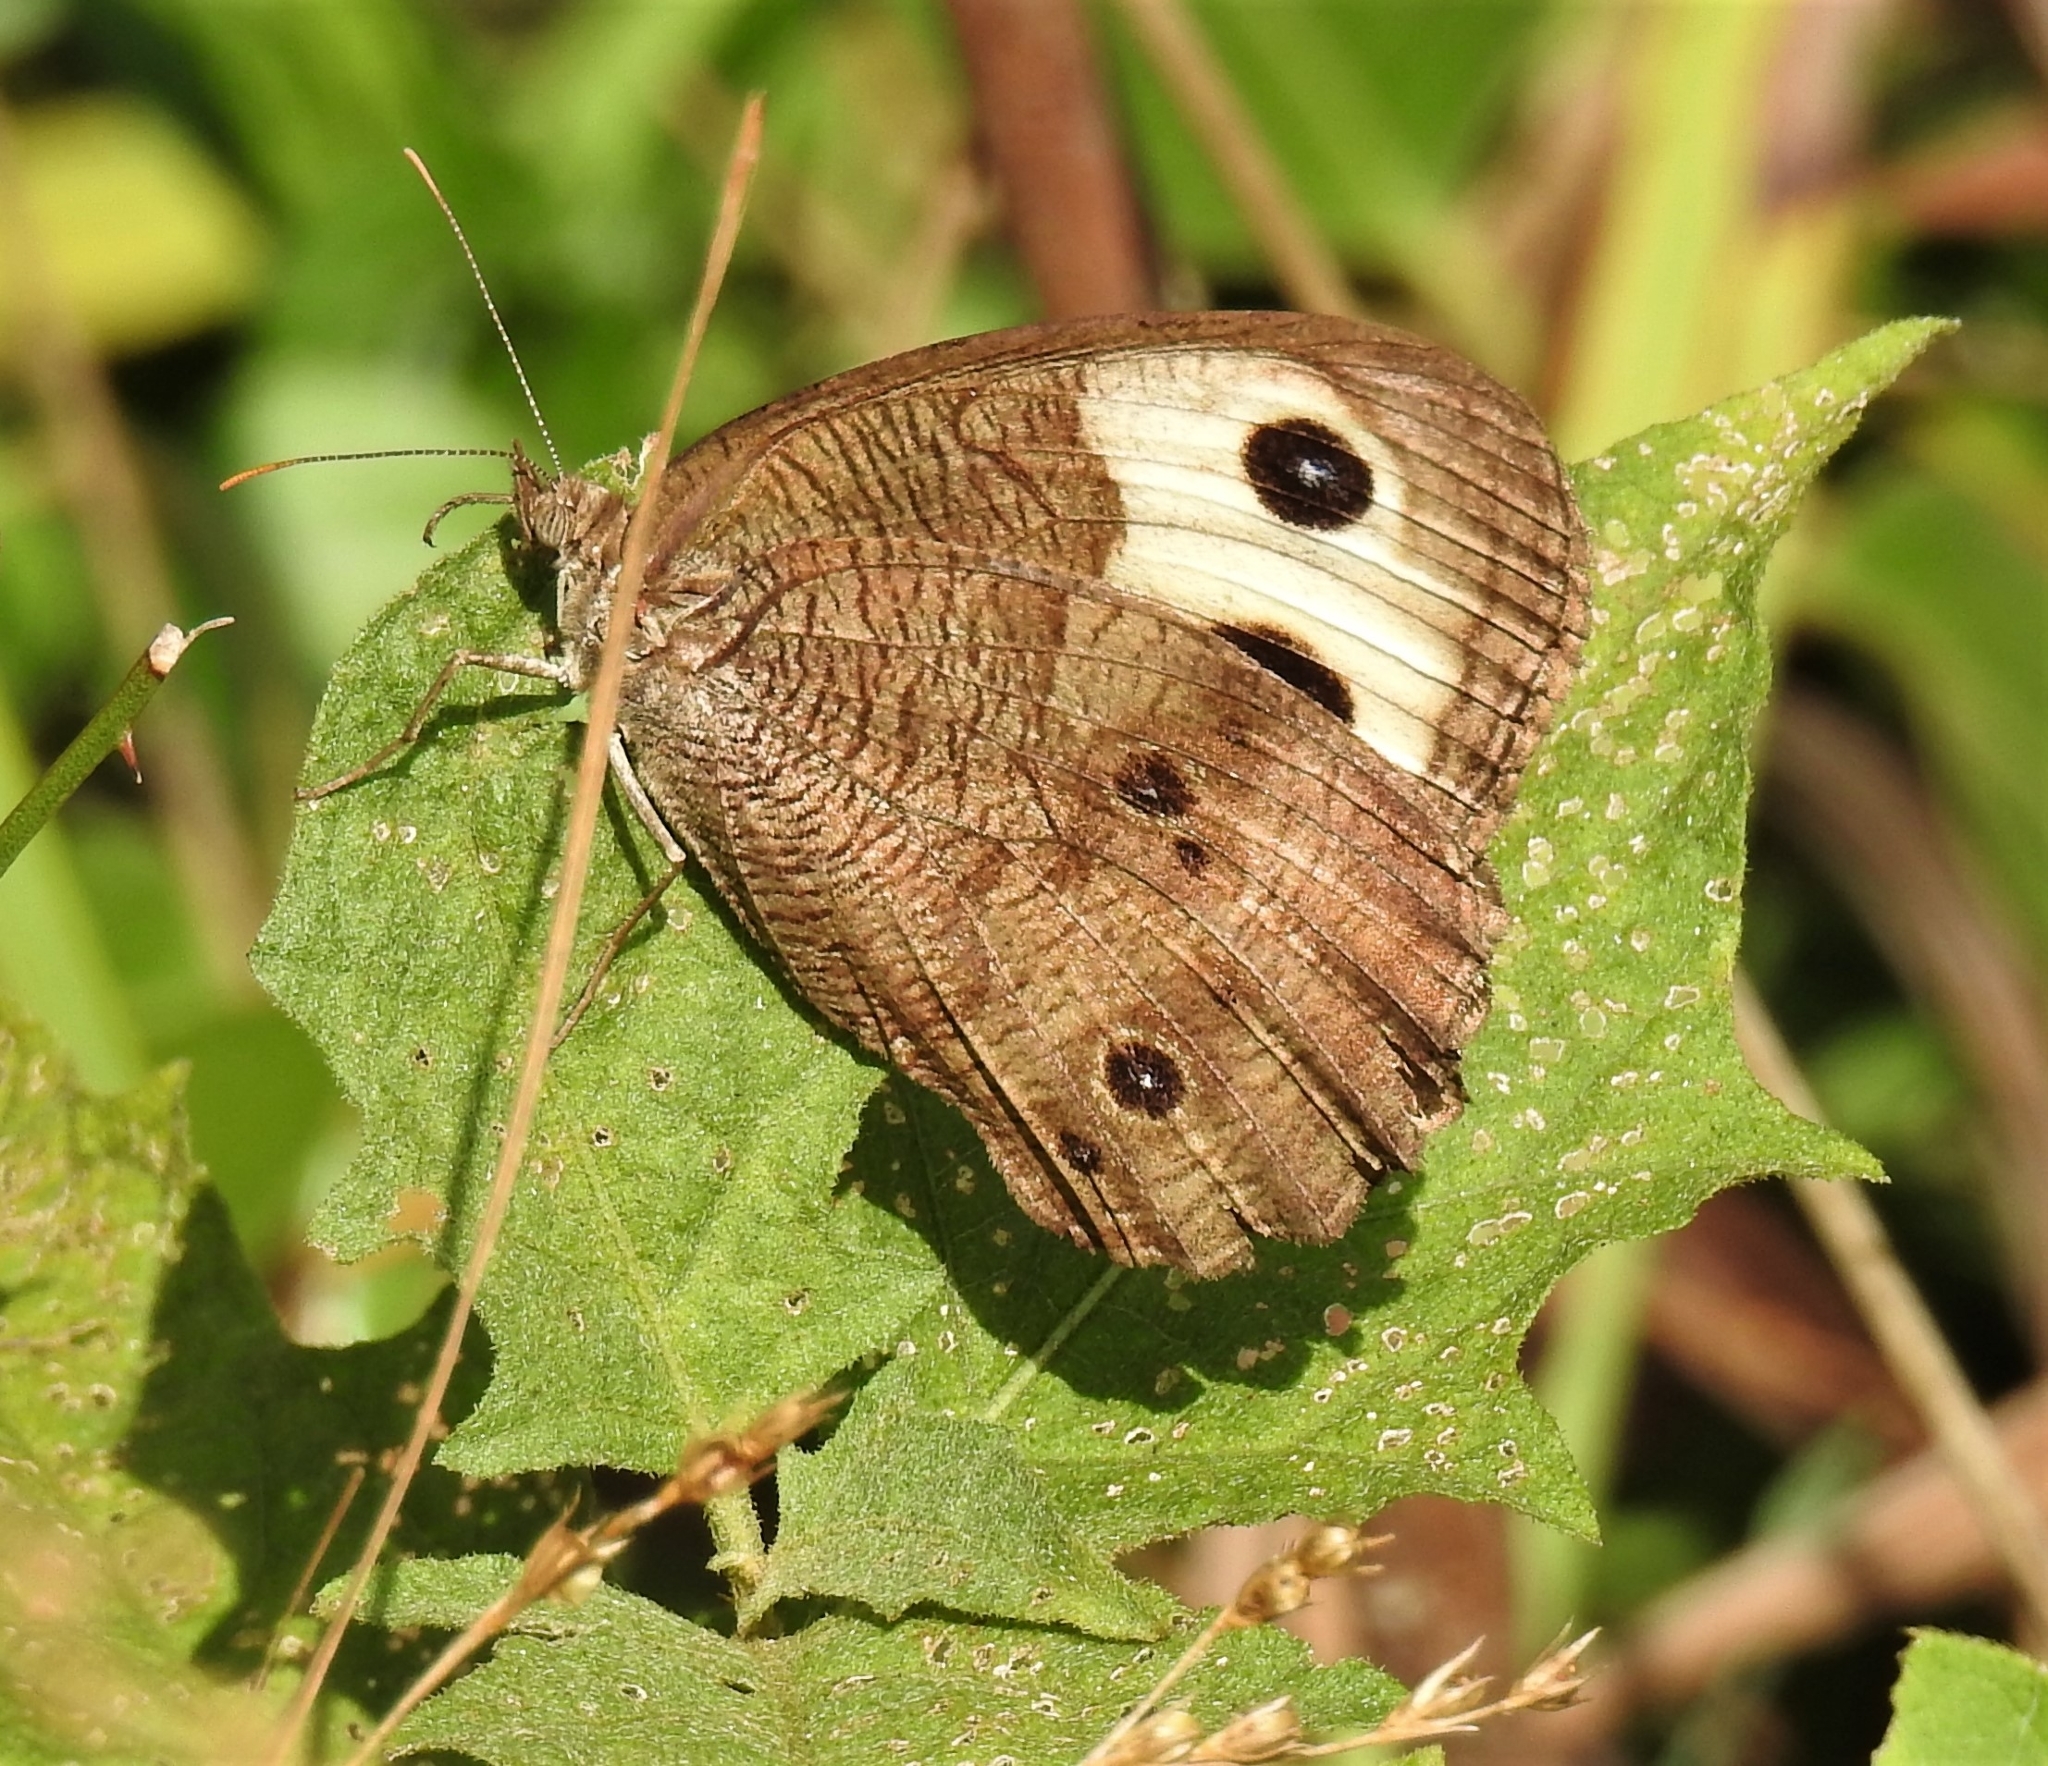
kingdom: Animalia
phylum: Arthropoda
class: Insecta
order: Lepidoptera
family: Nymphalidae
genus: Cercyonis
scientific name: Cercyonis pegala
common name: Common wood-nymph
